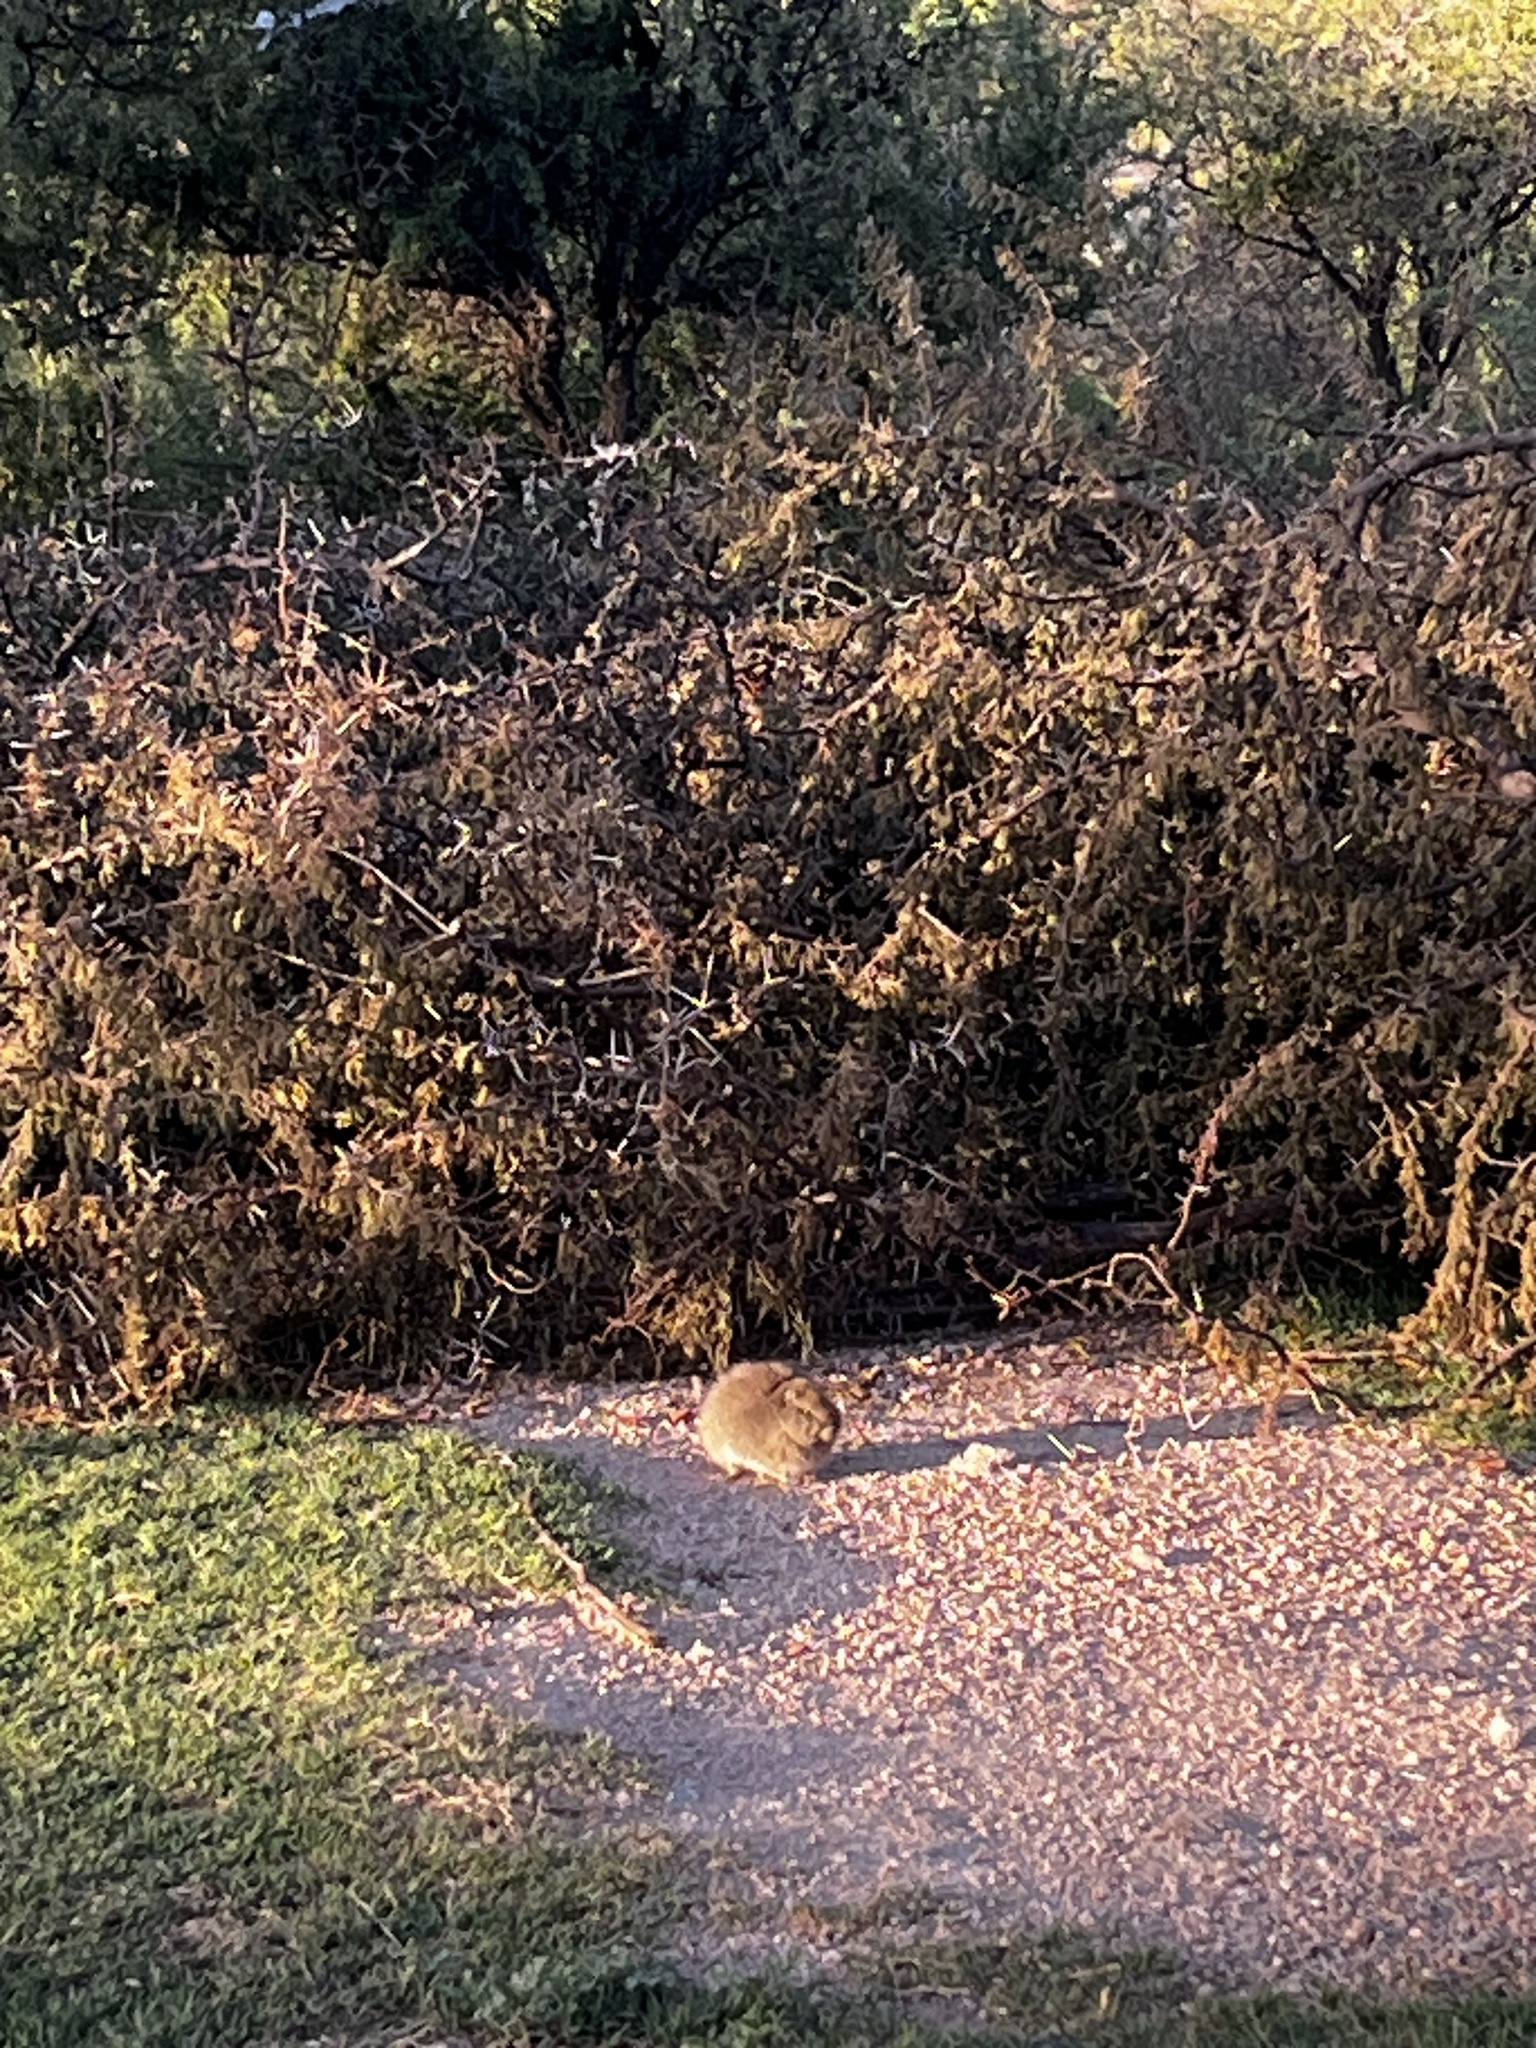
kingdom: Animalia
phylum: Chordata
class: Mammalia
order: Rodentia
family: Caviidae
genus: Galea
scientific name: Galea musteloides
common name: Common yellow-toothed cavy
